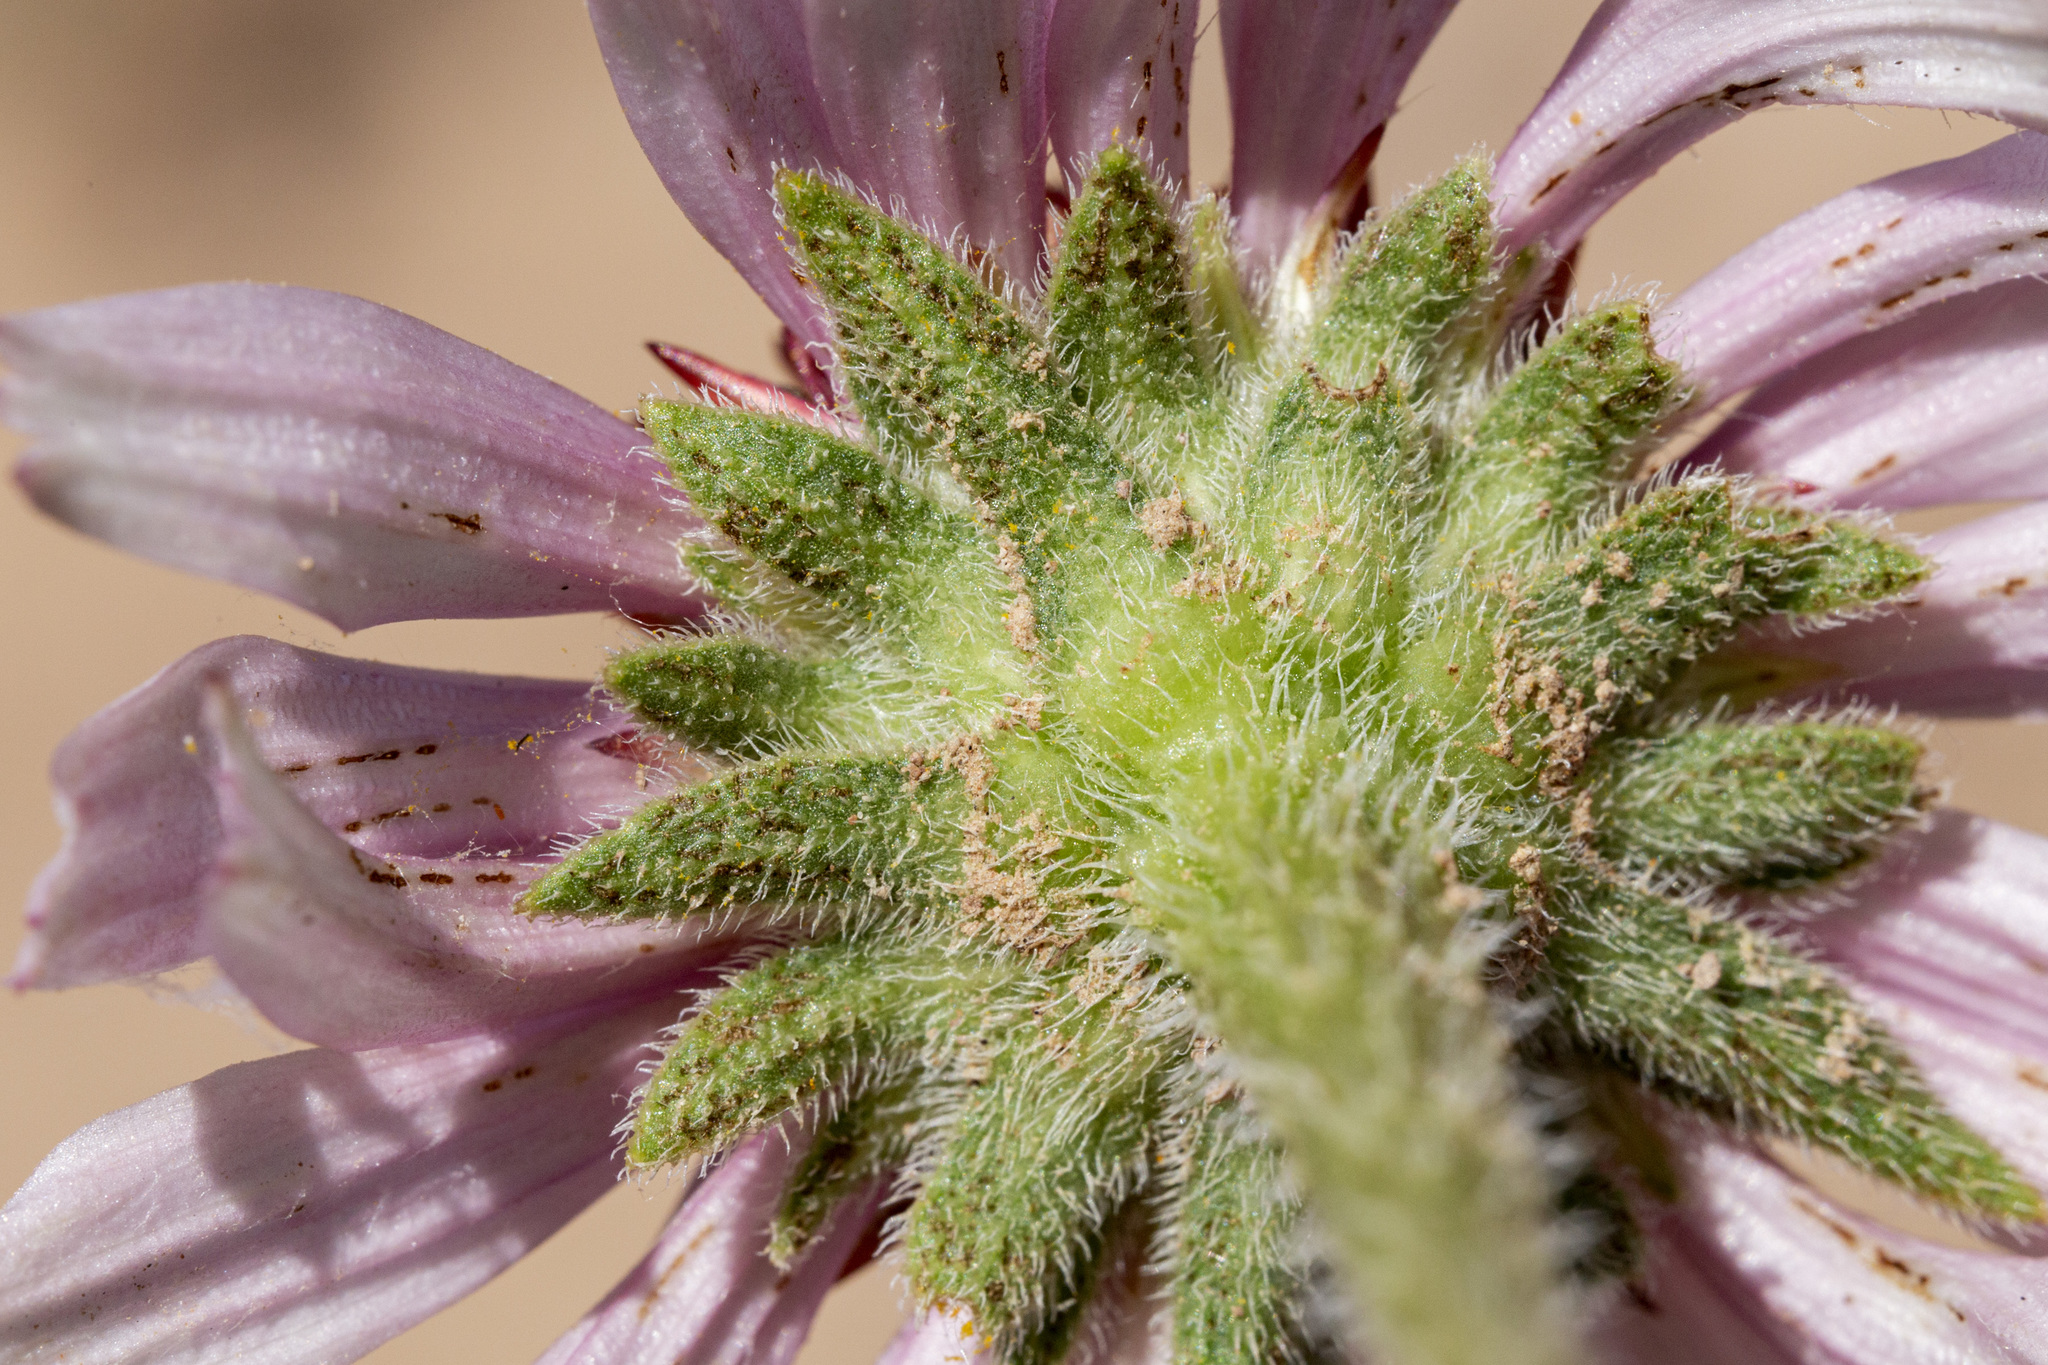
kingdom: Plantae
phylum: Tracheophyta
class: Magnoliopsida
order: Asterales
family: Asteraceae
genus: Echinacea
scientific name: Echinacea angustifolia
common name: Black-sampson echinacea
